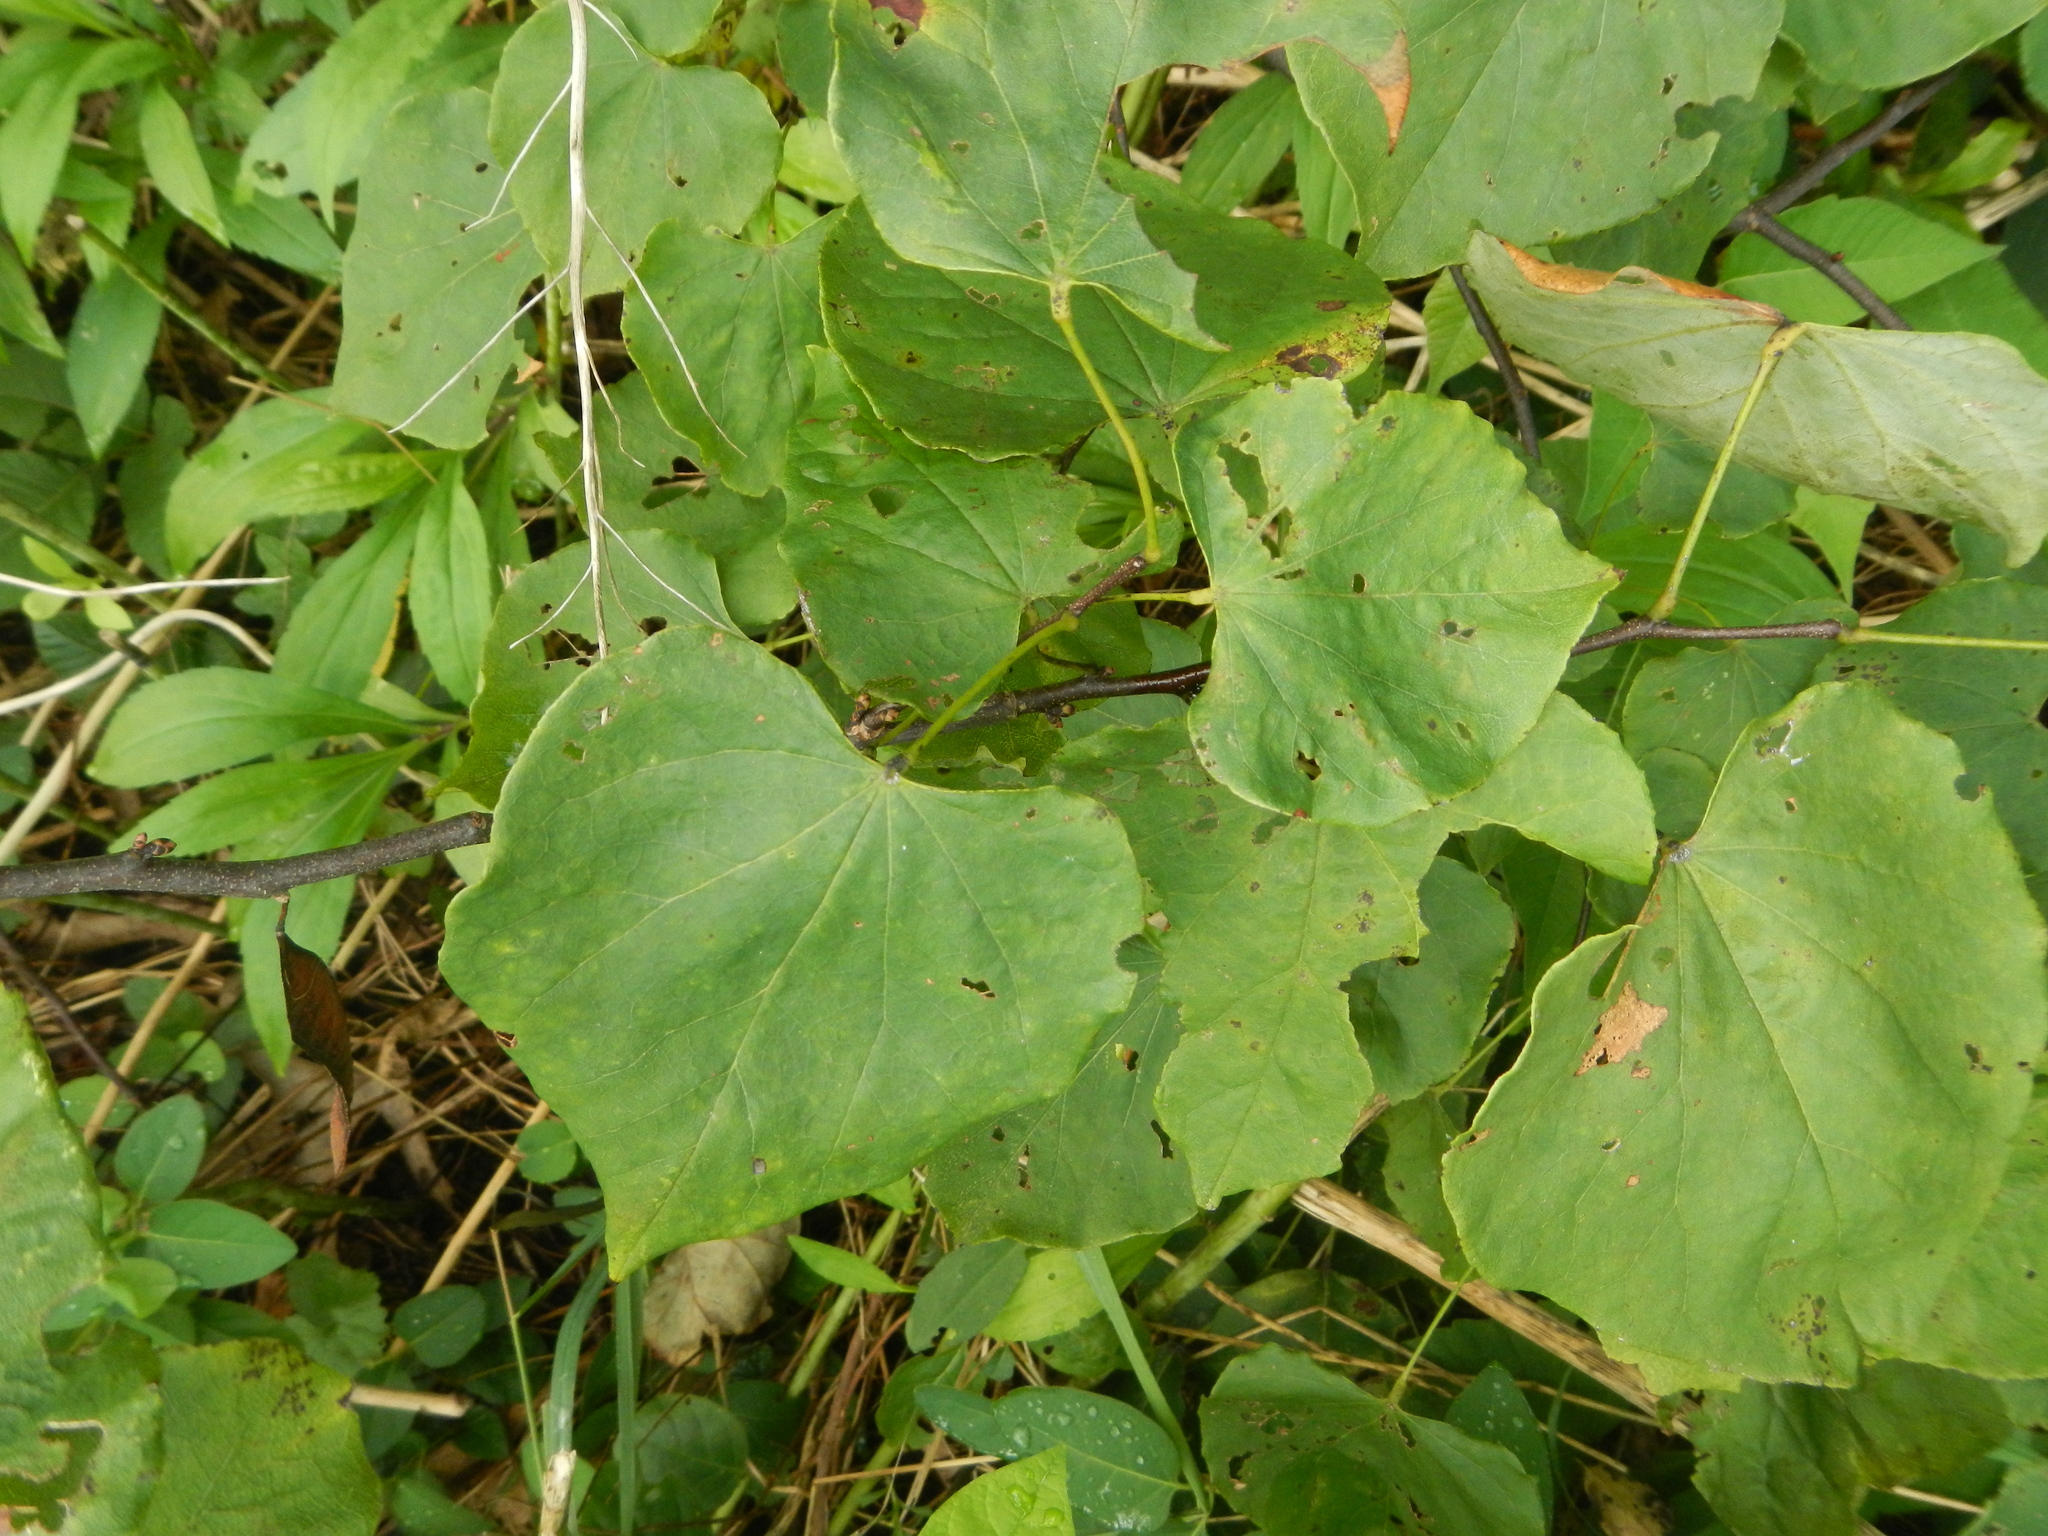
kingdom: Plantae
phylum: Tracheophyta
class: Magnoliopsida
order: Fabales
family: Fabaceae
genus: Cercis
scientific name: Cercis canadensis
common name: Eastern redbud
